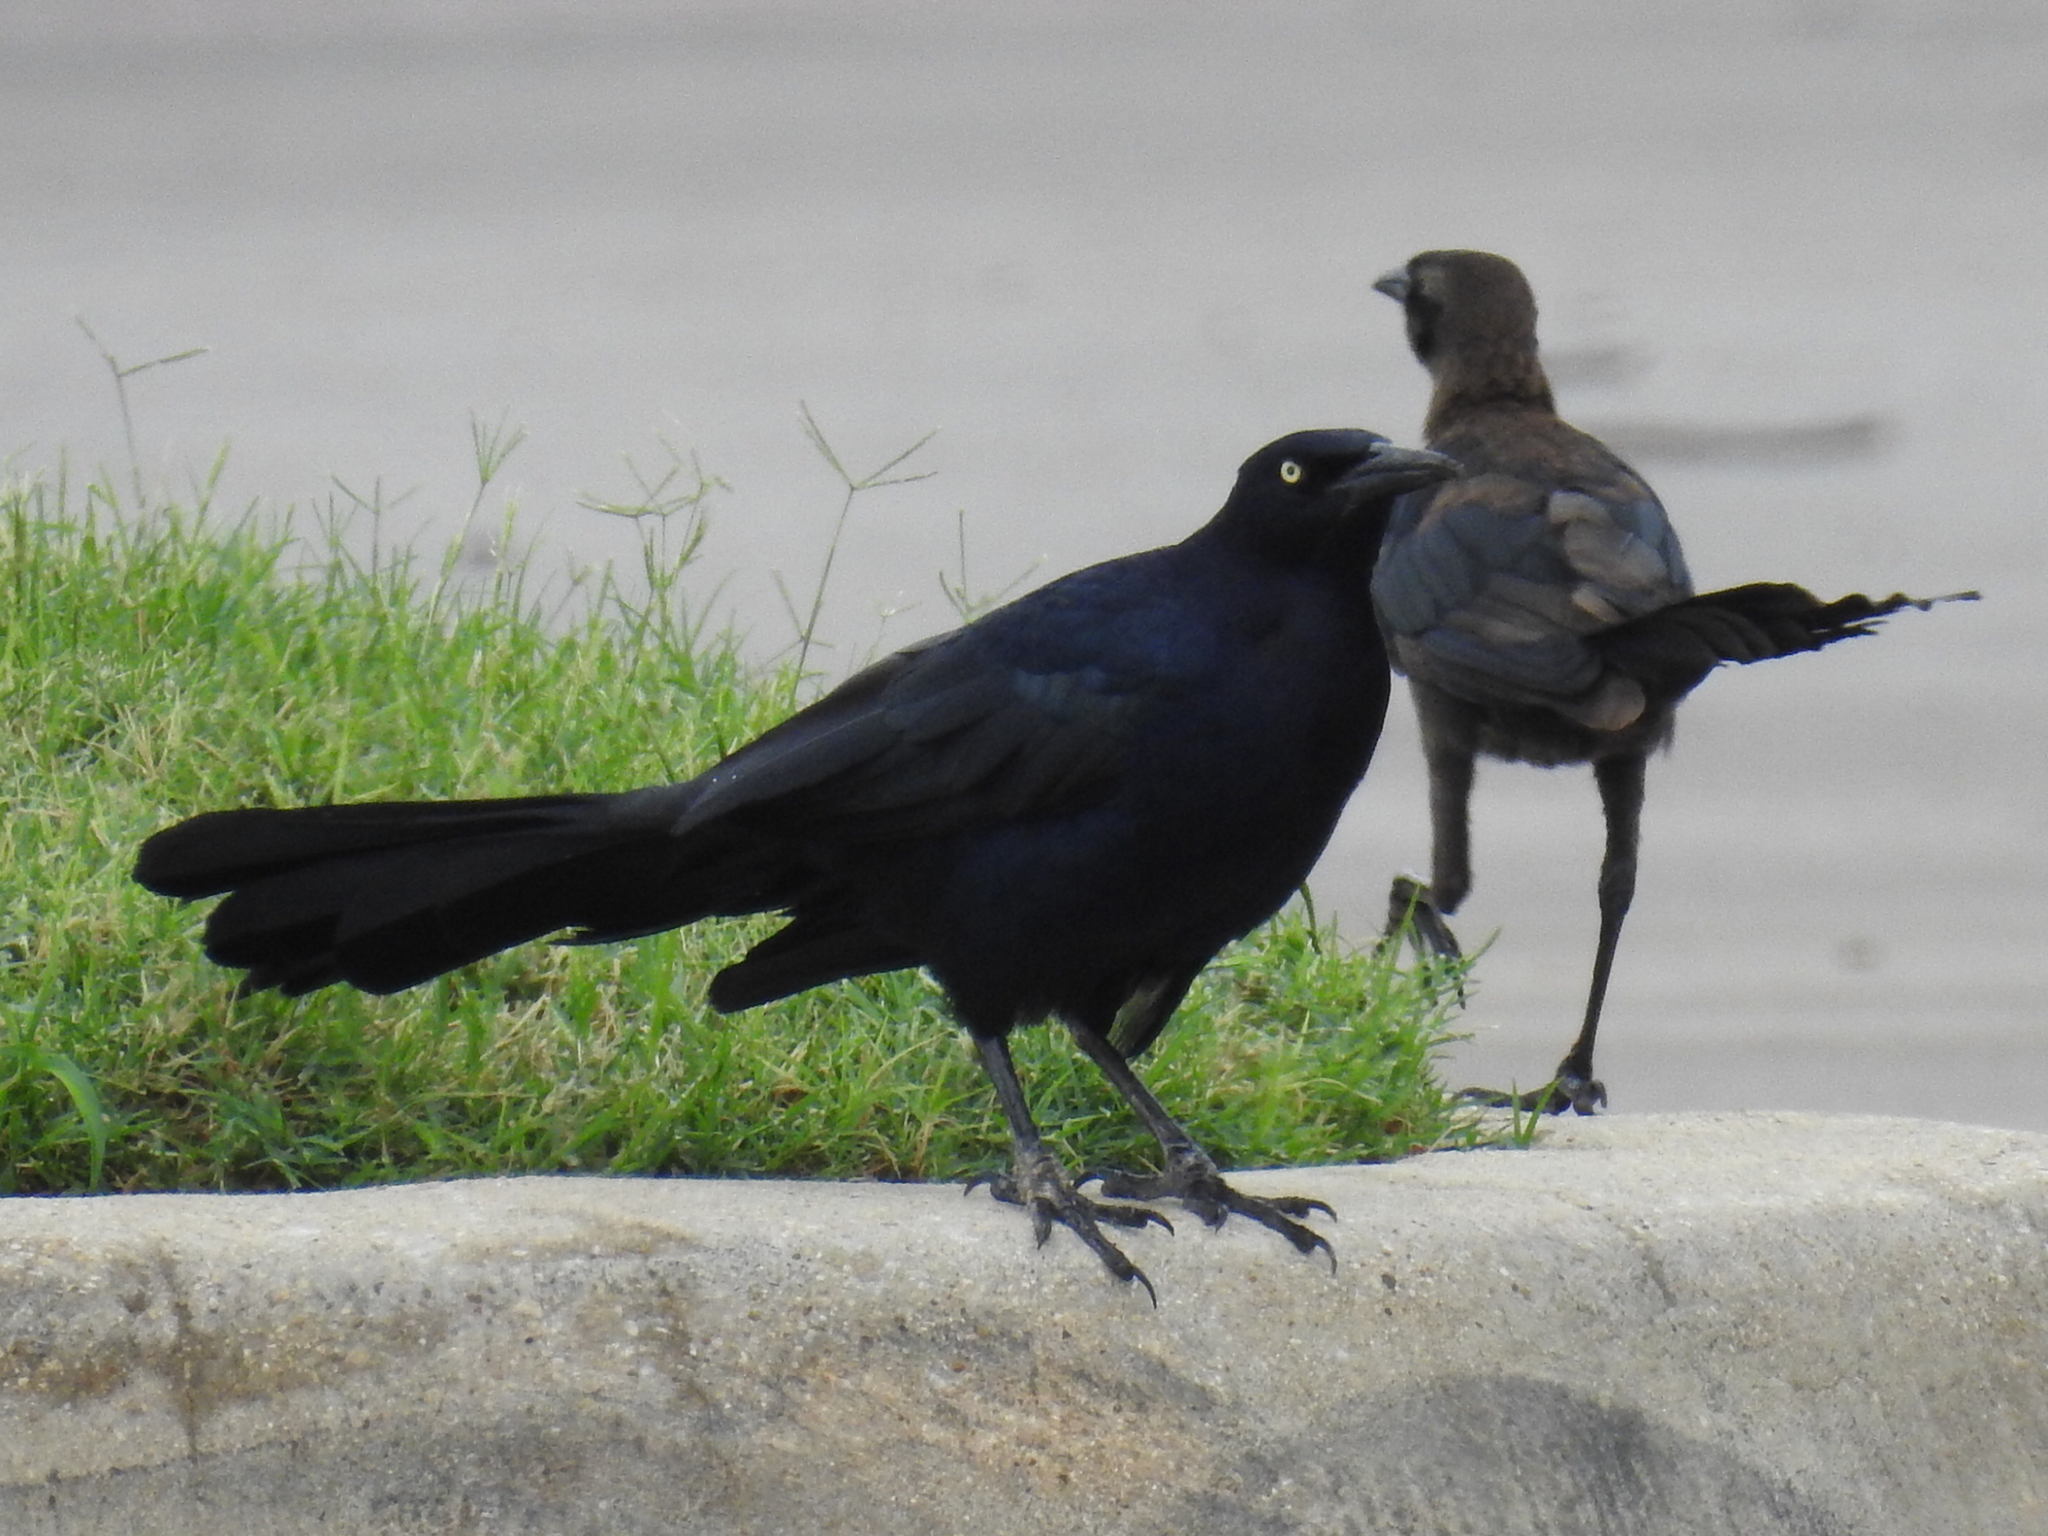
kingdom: Animalia
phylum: Chordata
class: Aves
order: Passeriformes
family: Icteridae
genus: Quiscalus
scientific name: Quiscalus mexicanus
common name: Great-tailed grackle
